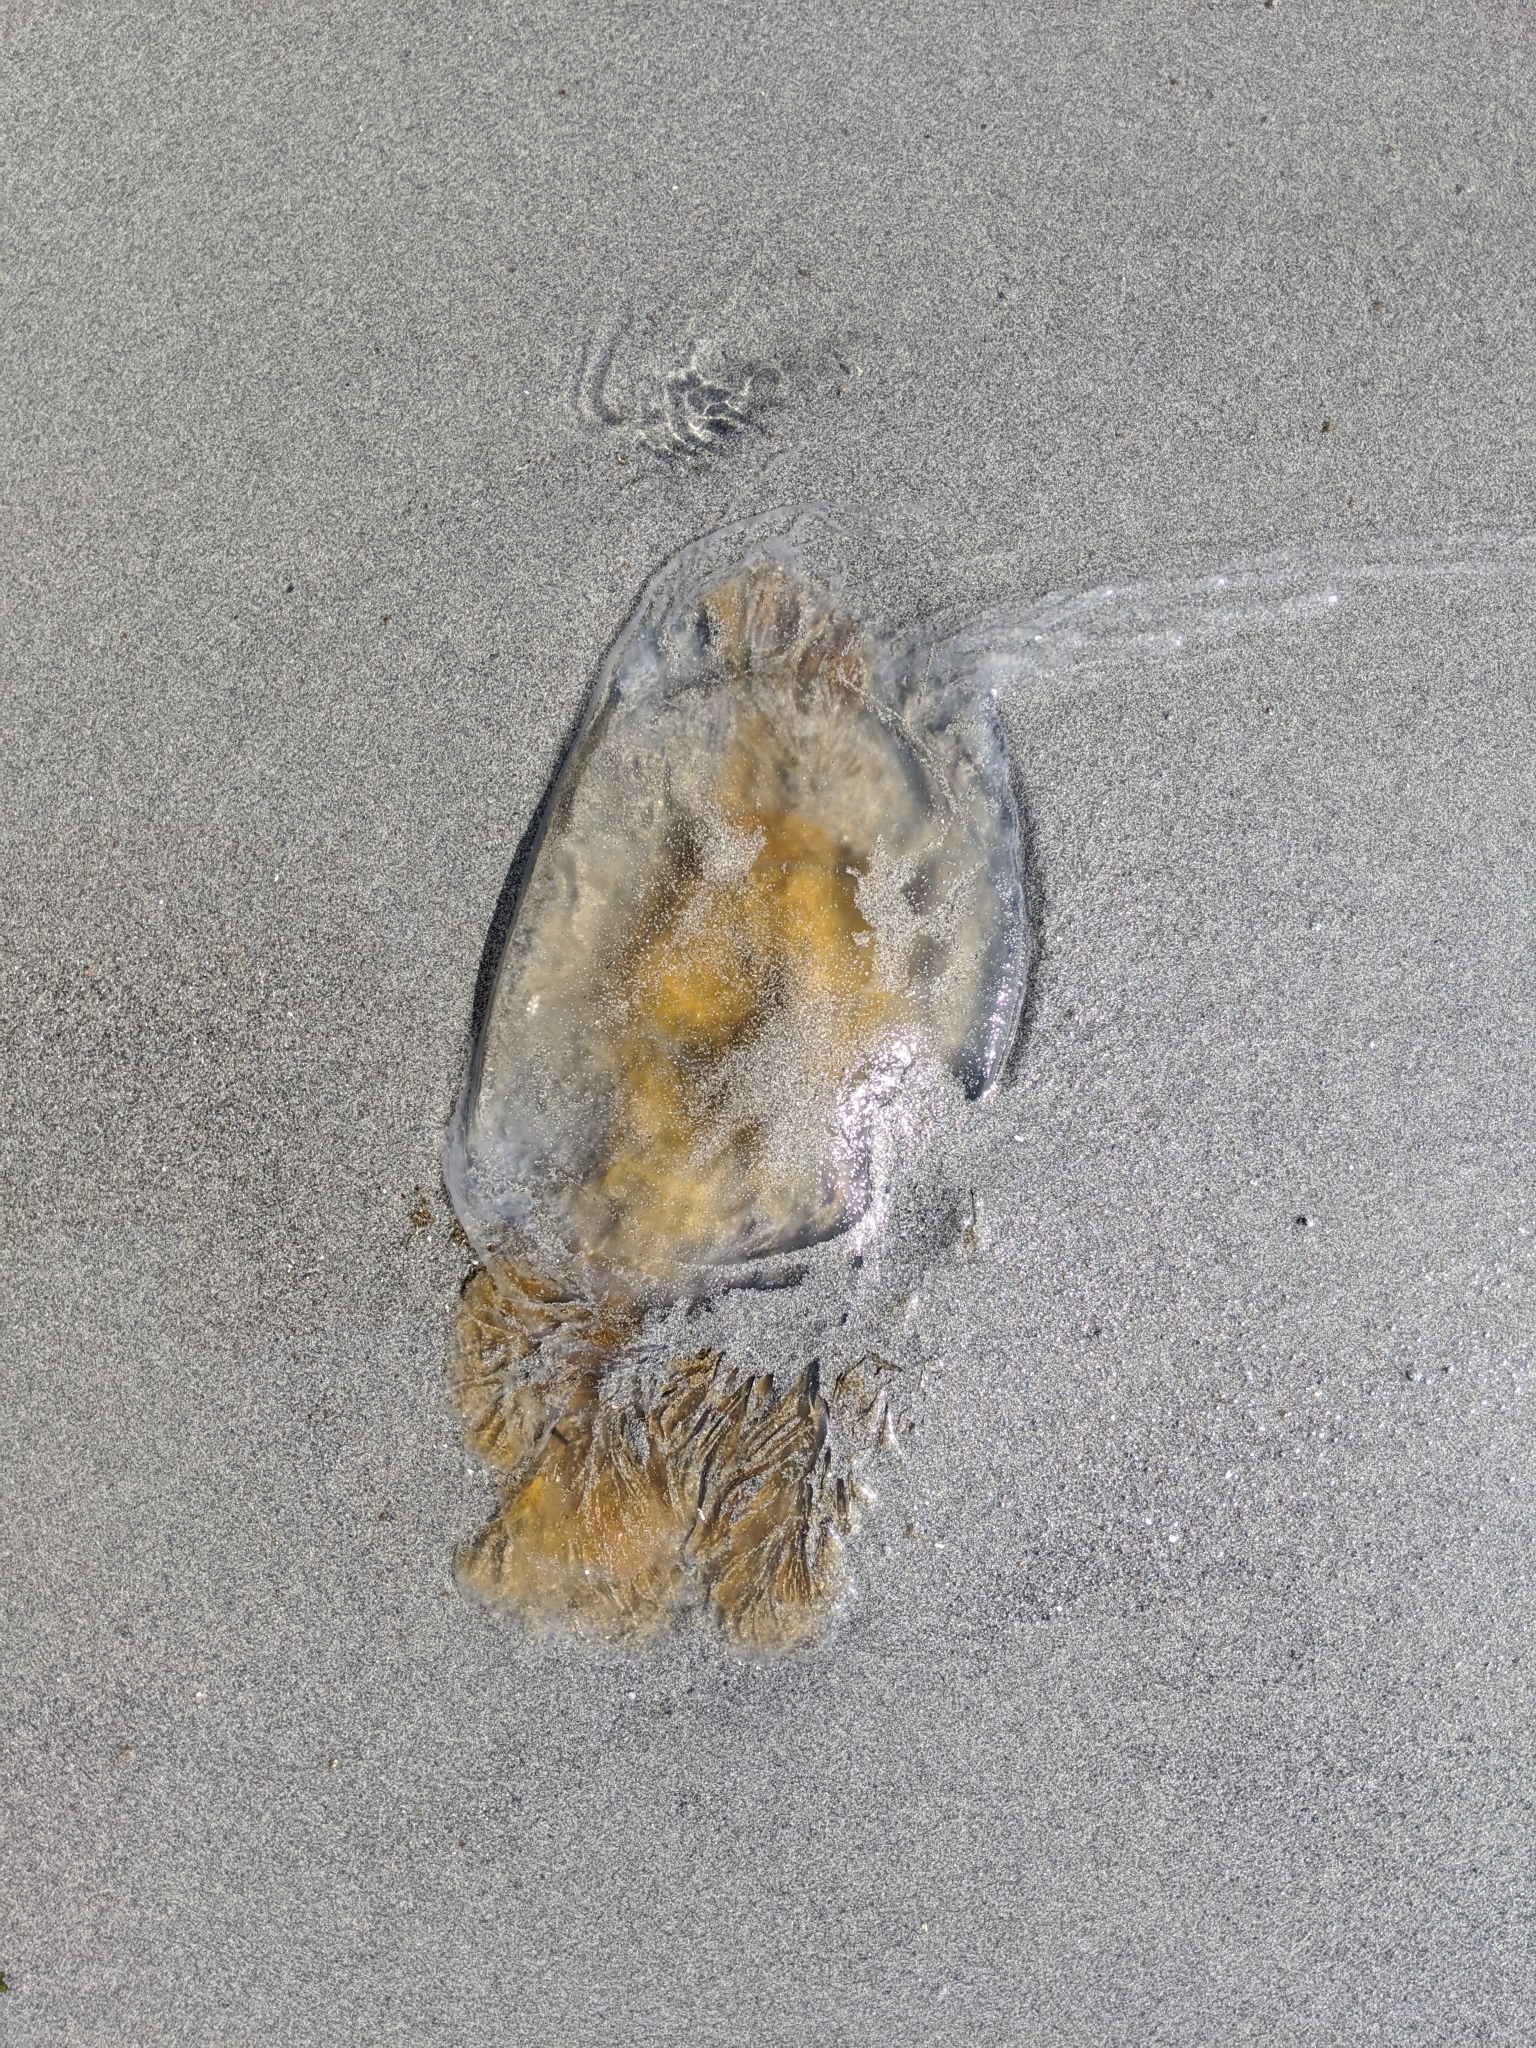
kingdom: Animalia
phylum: Cnidaria
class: Scyphozoa
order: Semaeostomeae
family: Phacellophoridae
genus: Phacellophora
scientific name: Phacellophora camtschatica
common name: Fried-egg jellyfish
